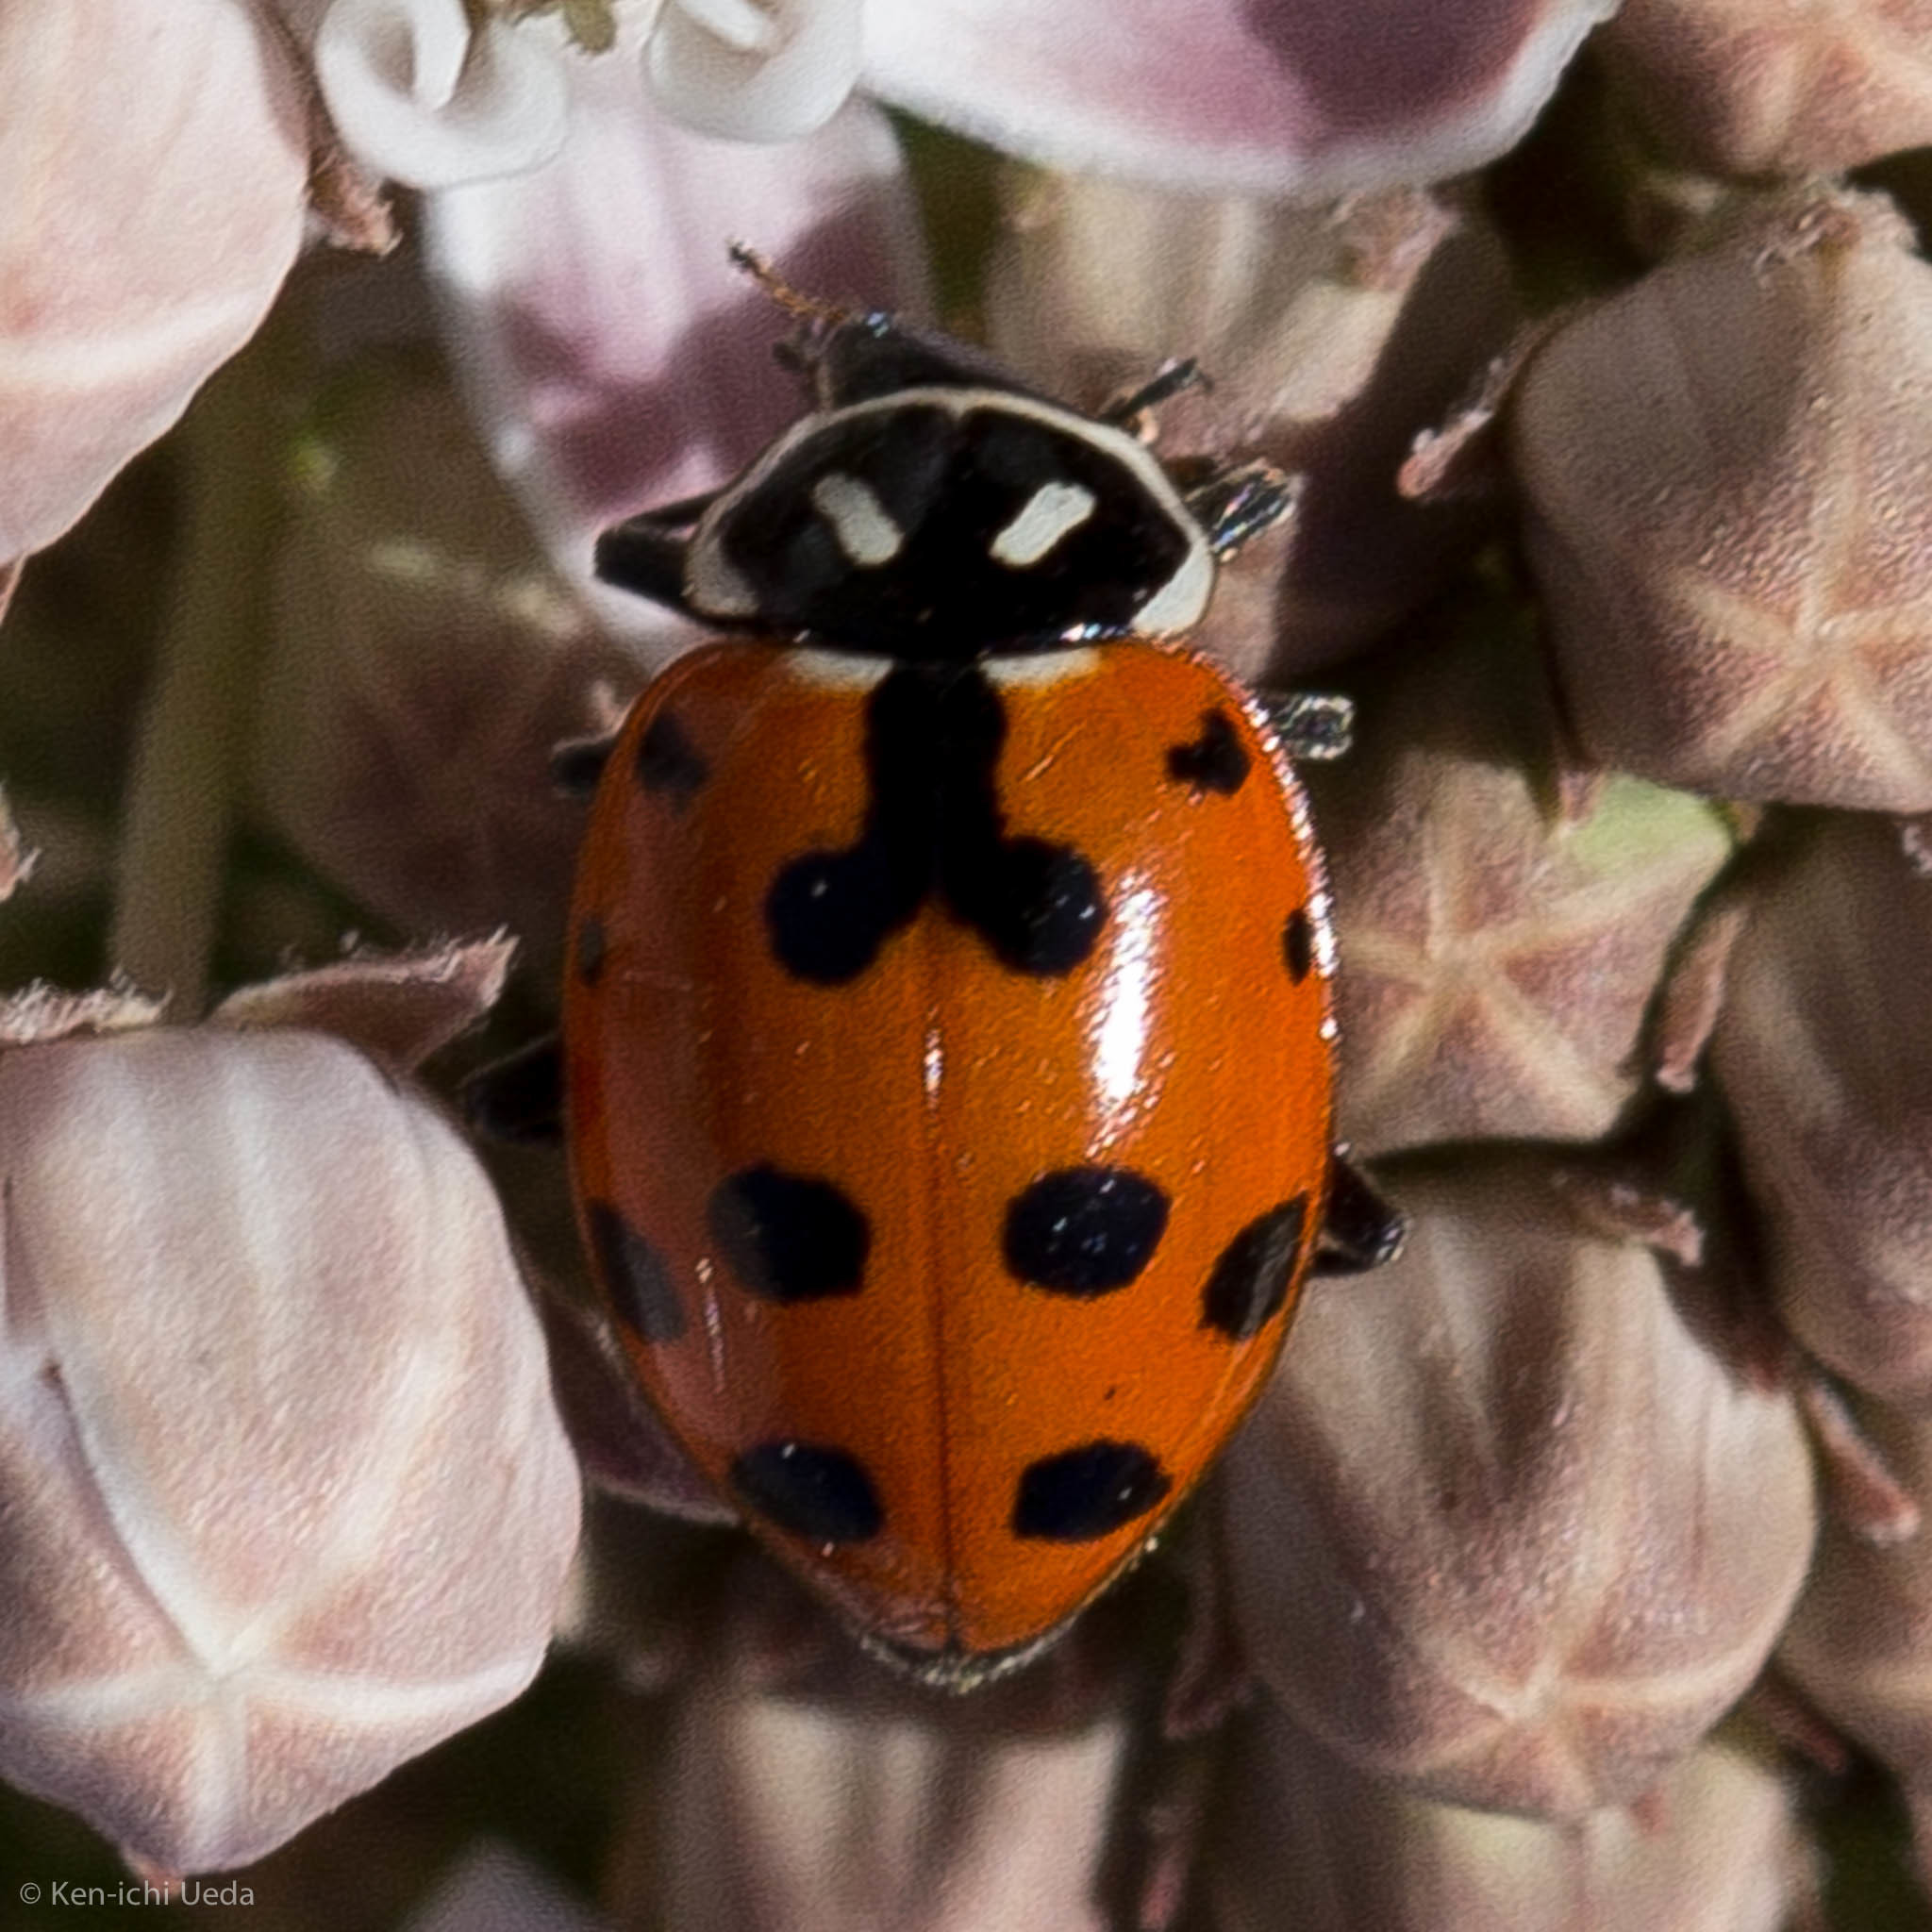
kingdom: Animalia
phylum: Arthropoda
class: Insecta
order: Coleoptera
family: Coccinellidae
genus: Hippodamia
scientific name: Hippodamia convergens
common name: Convergent lady beetle
